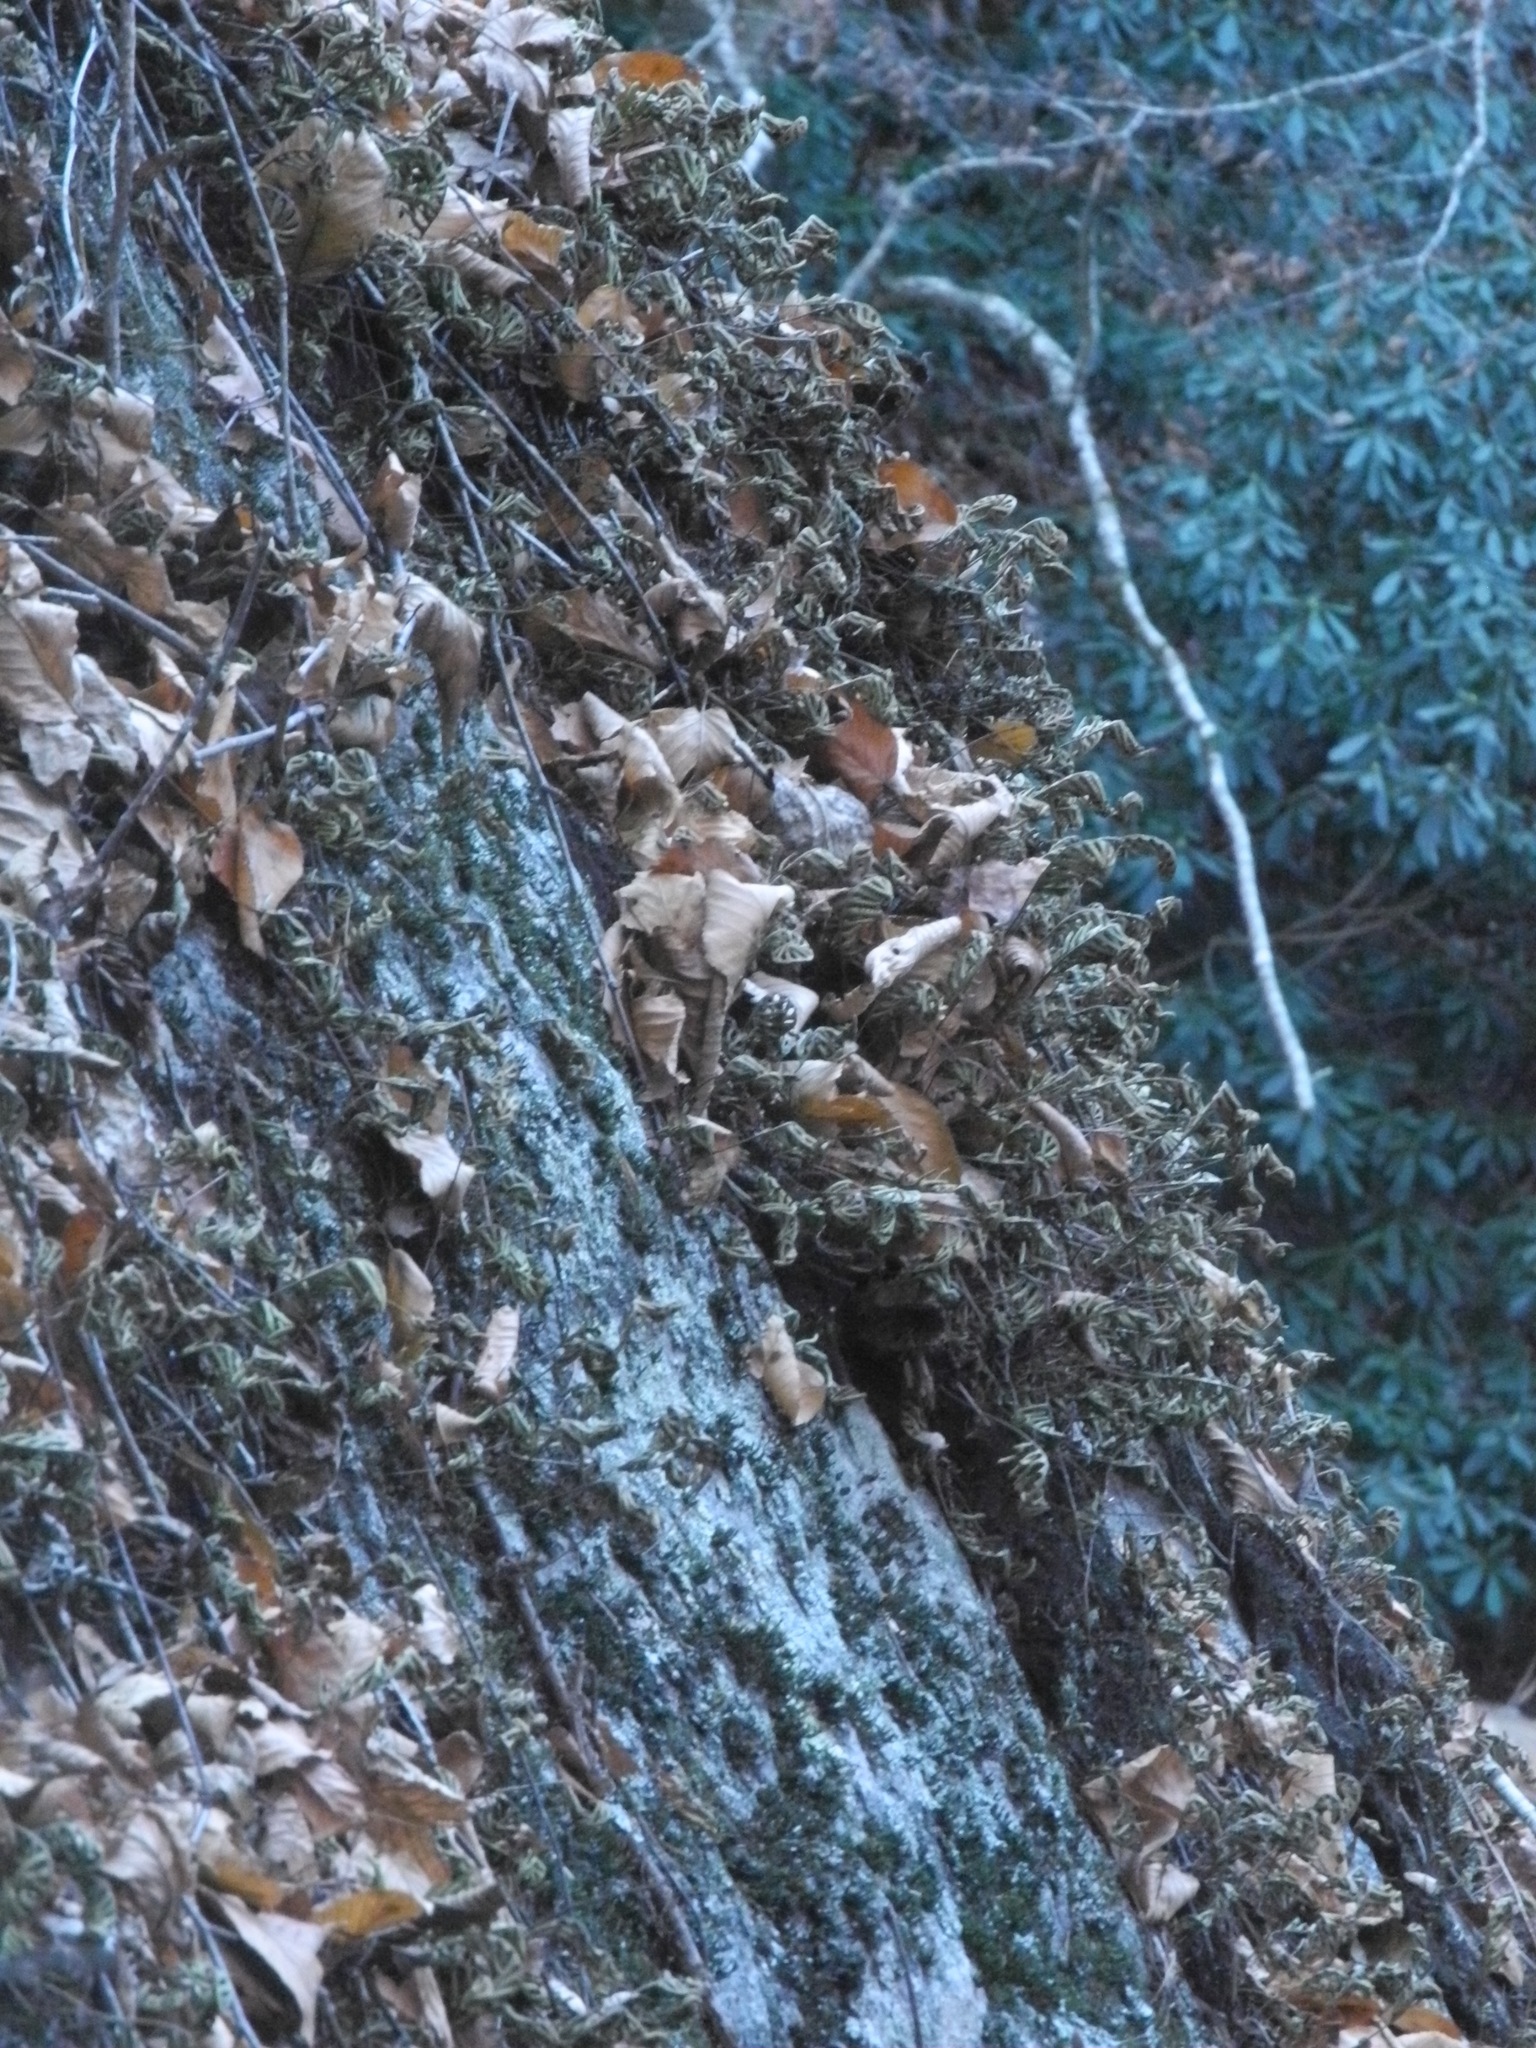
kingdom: Plantae
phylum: Tracheophyta
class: Polypodiopsida
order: Polypodiales
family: Polypodiaceae
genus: Pleopeltis
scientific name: Pleopeltis michauxiana
